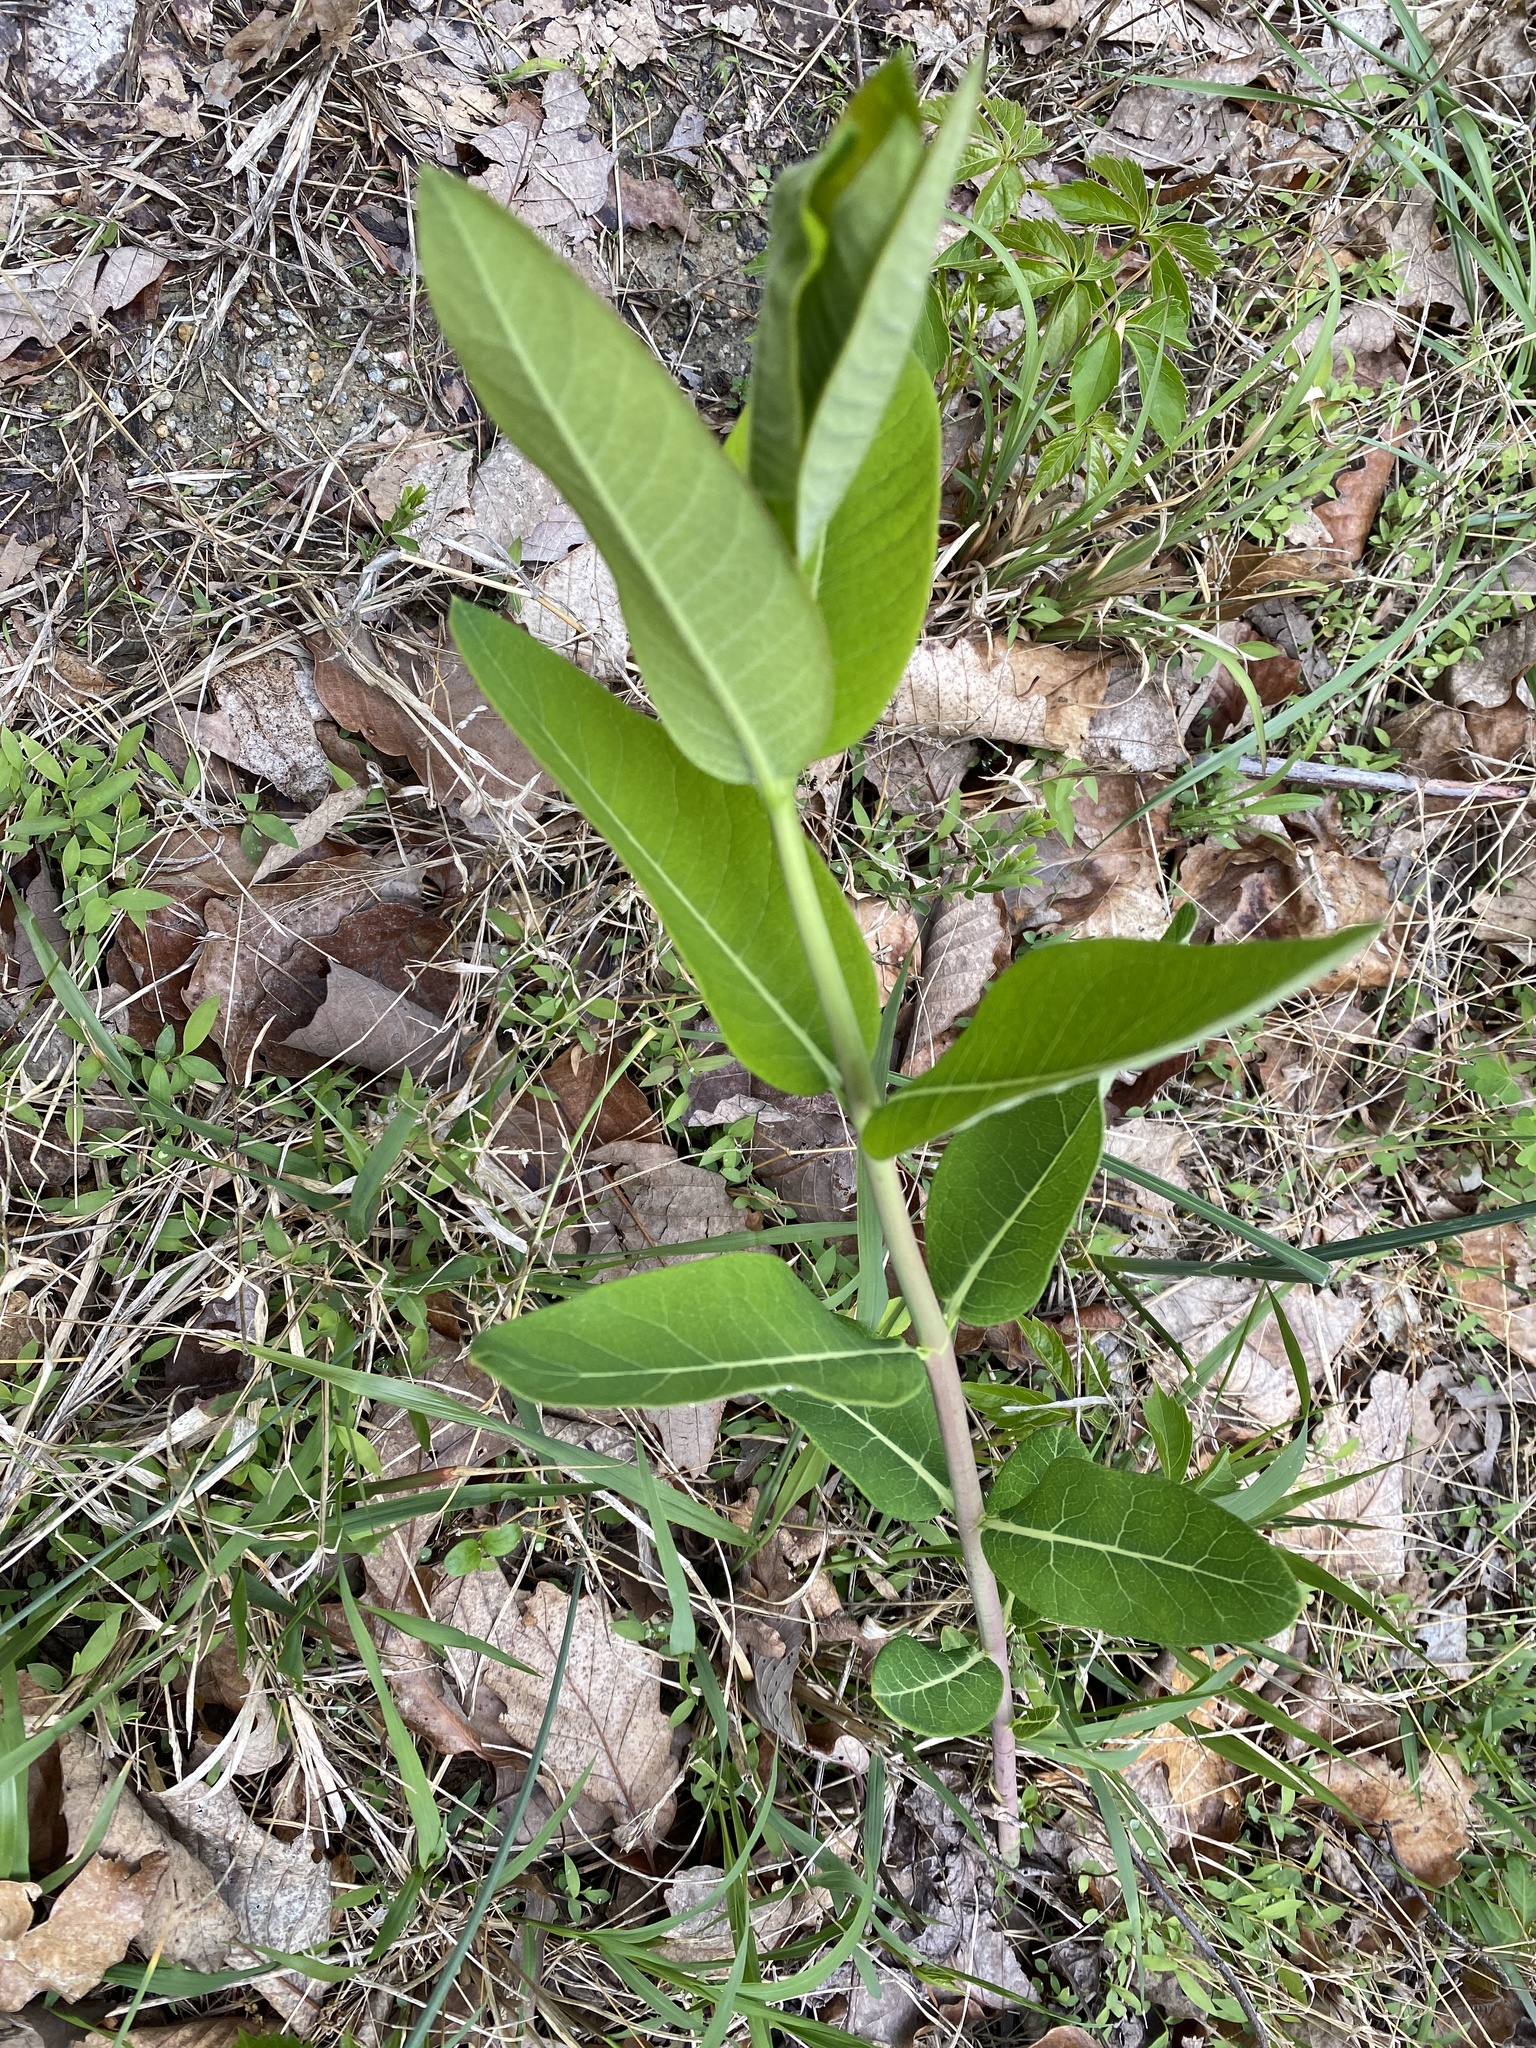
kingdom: Plantae
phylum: Tracheophyta
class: Magnoliopsida
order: Gentianales
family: Apocynaceae
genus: Apocynum
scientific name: Apocynum cannabinum
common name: Hemp dogbane
